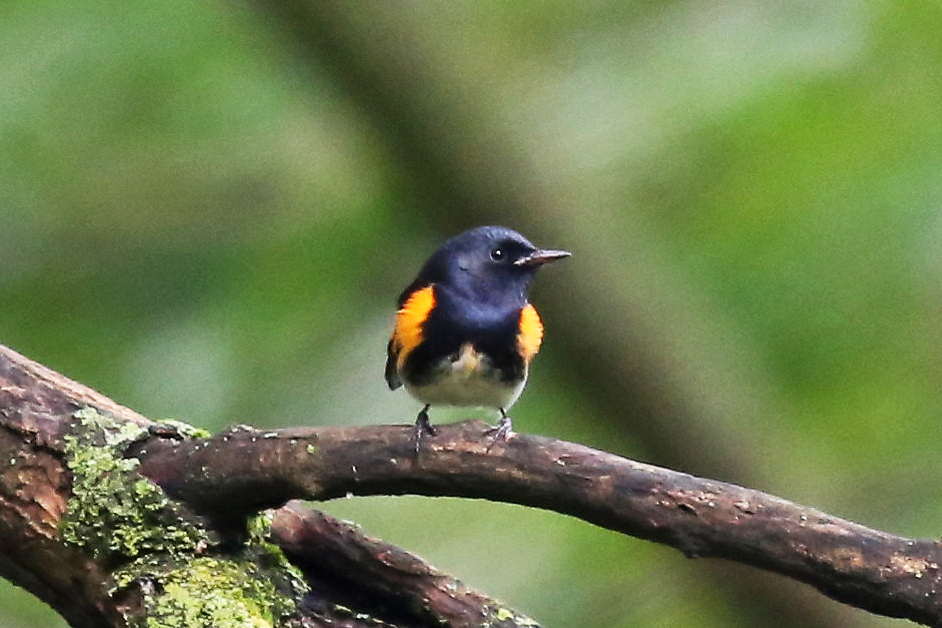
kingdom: Animalia
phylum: Chordata
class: Aves
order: Passeriformes
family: Parulidae
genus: Setophaga
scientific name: Setophaga ruticilla
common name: American redstart
